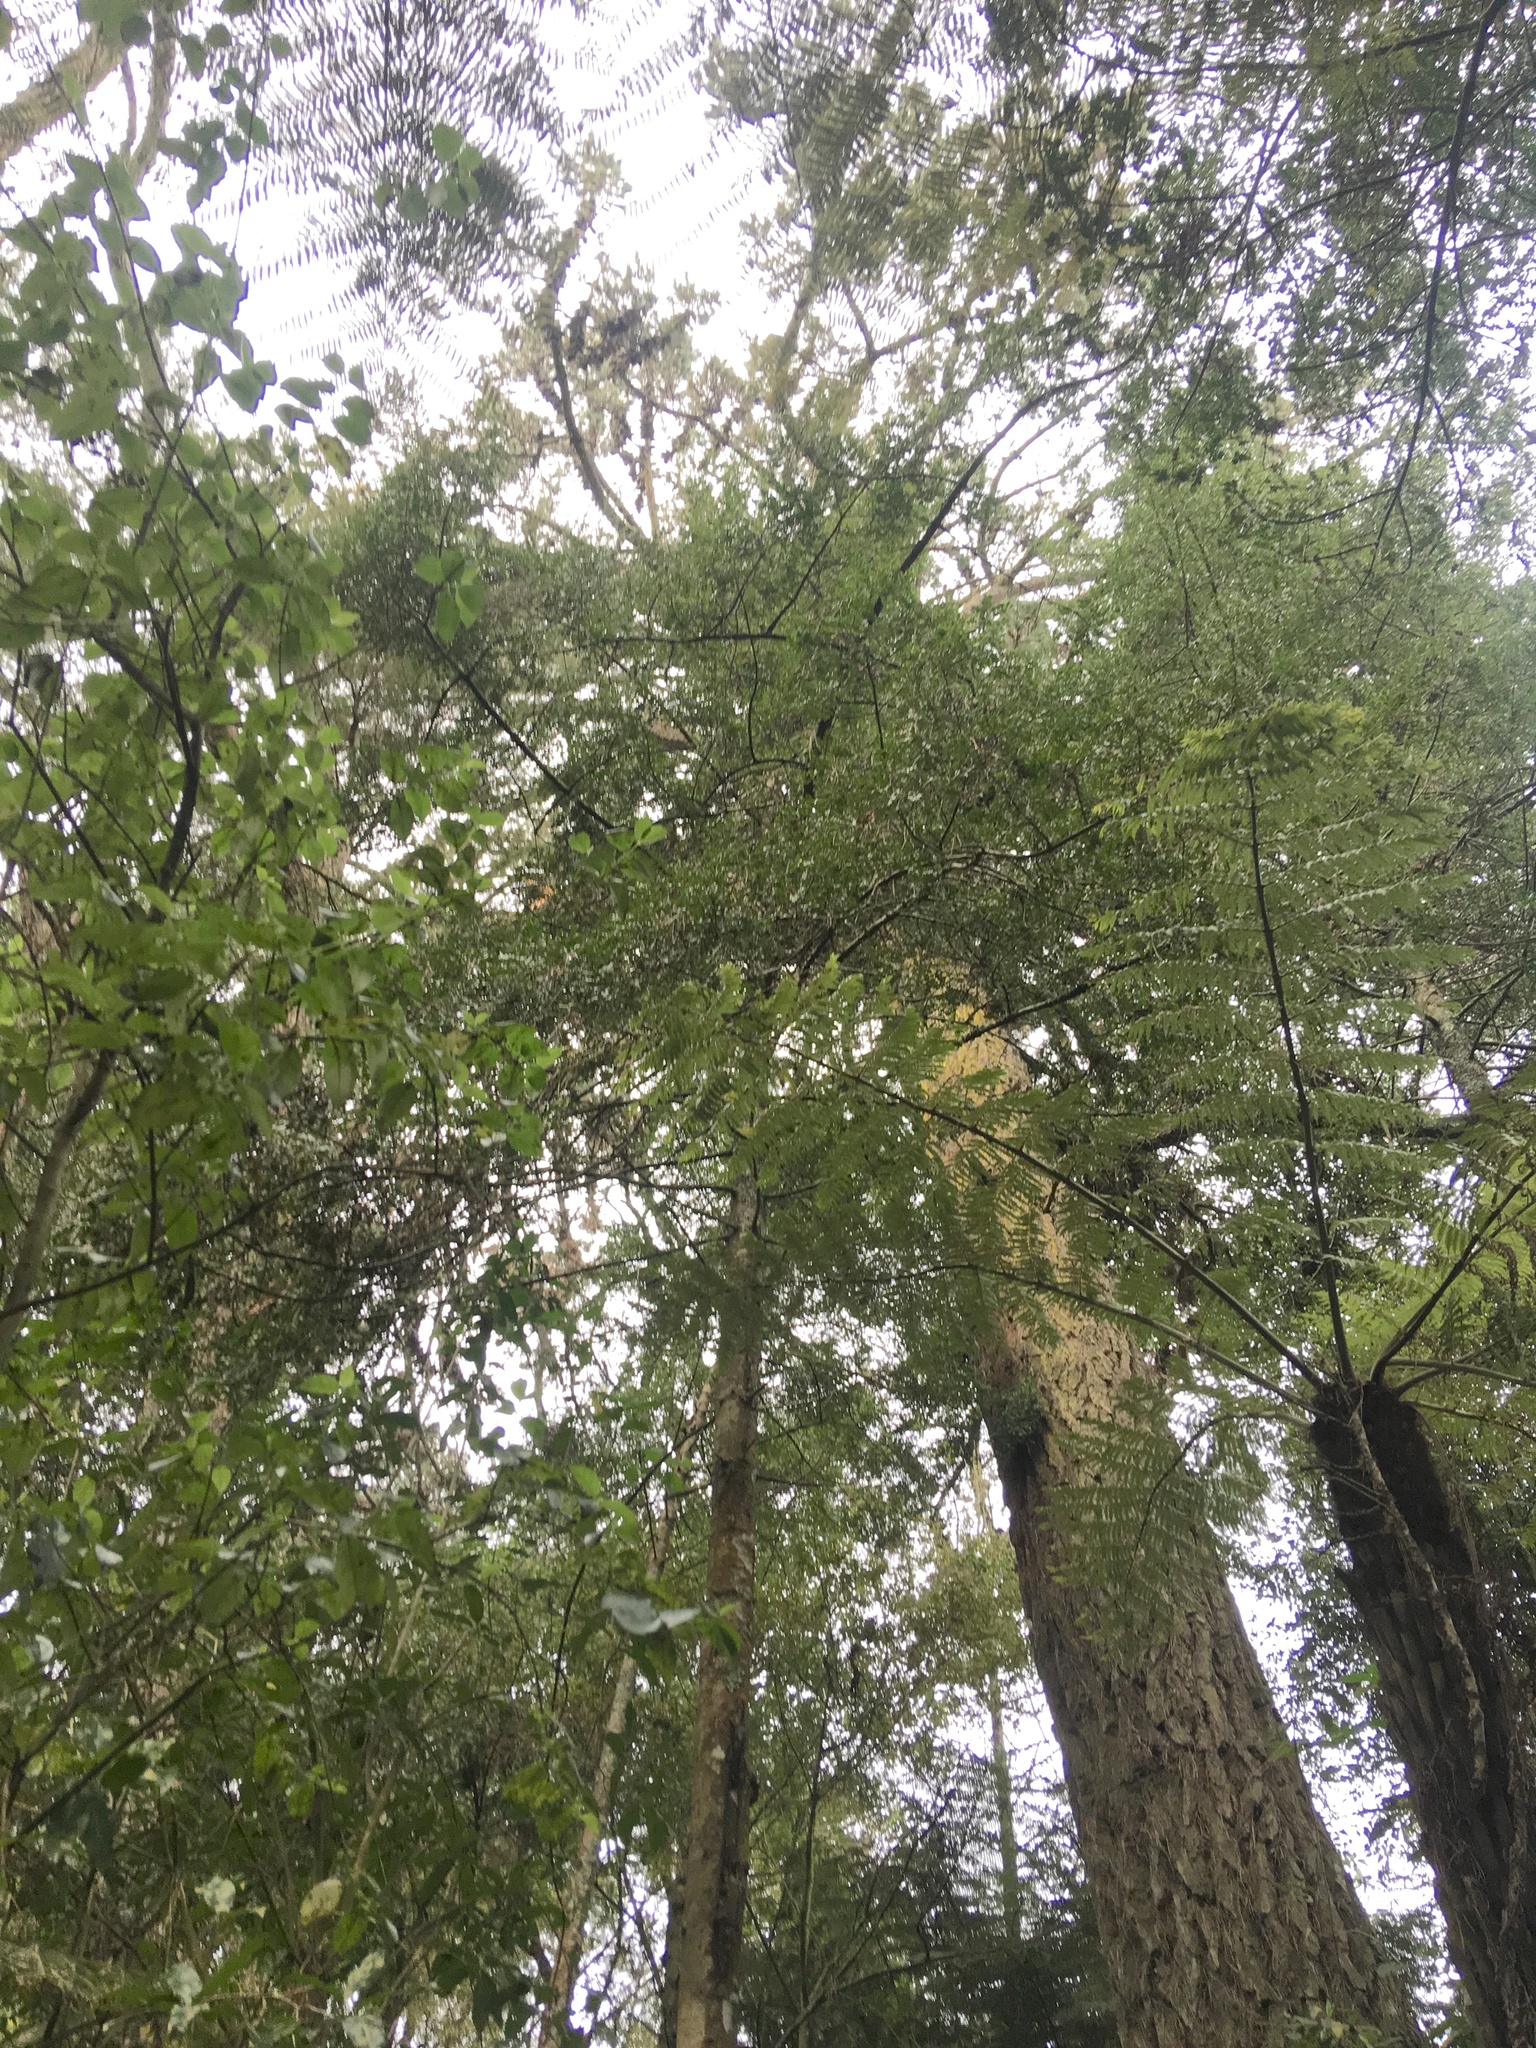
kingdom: Plantae
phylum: Tracheophyta
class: Pinopsida
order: Pinales
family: Phyllocladaceae
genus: Phyllocladus
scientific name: Phyllocladus trichomanoides
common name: Celery pine
